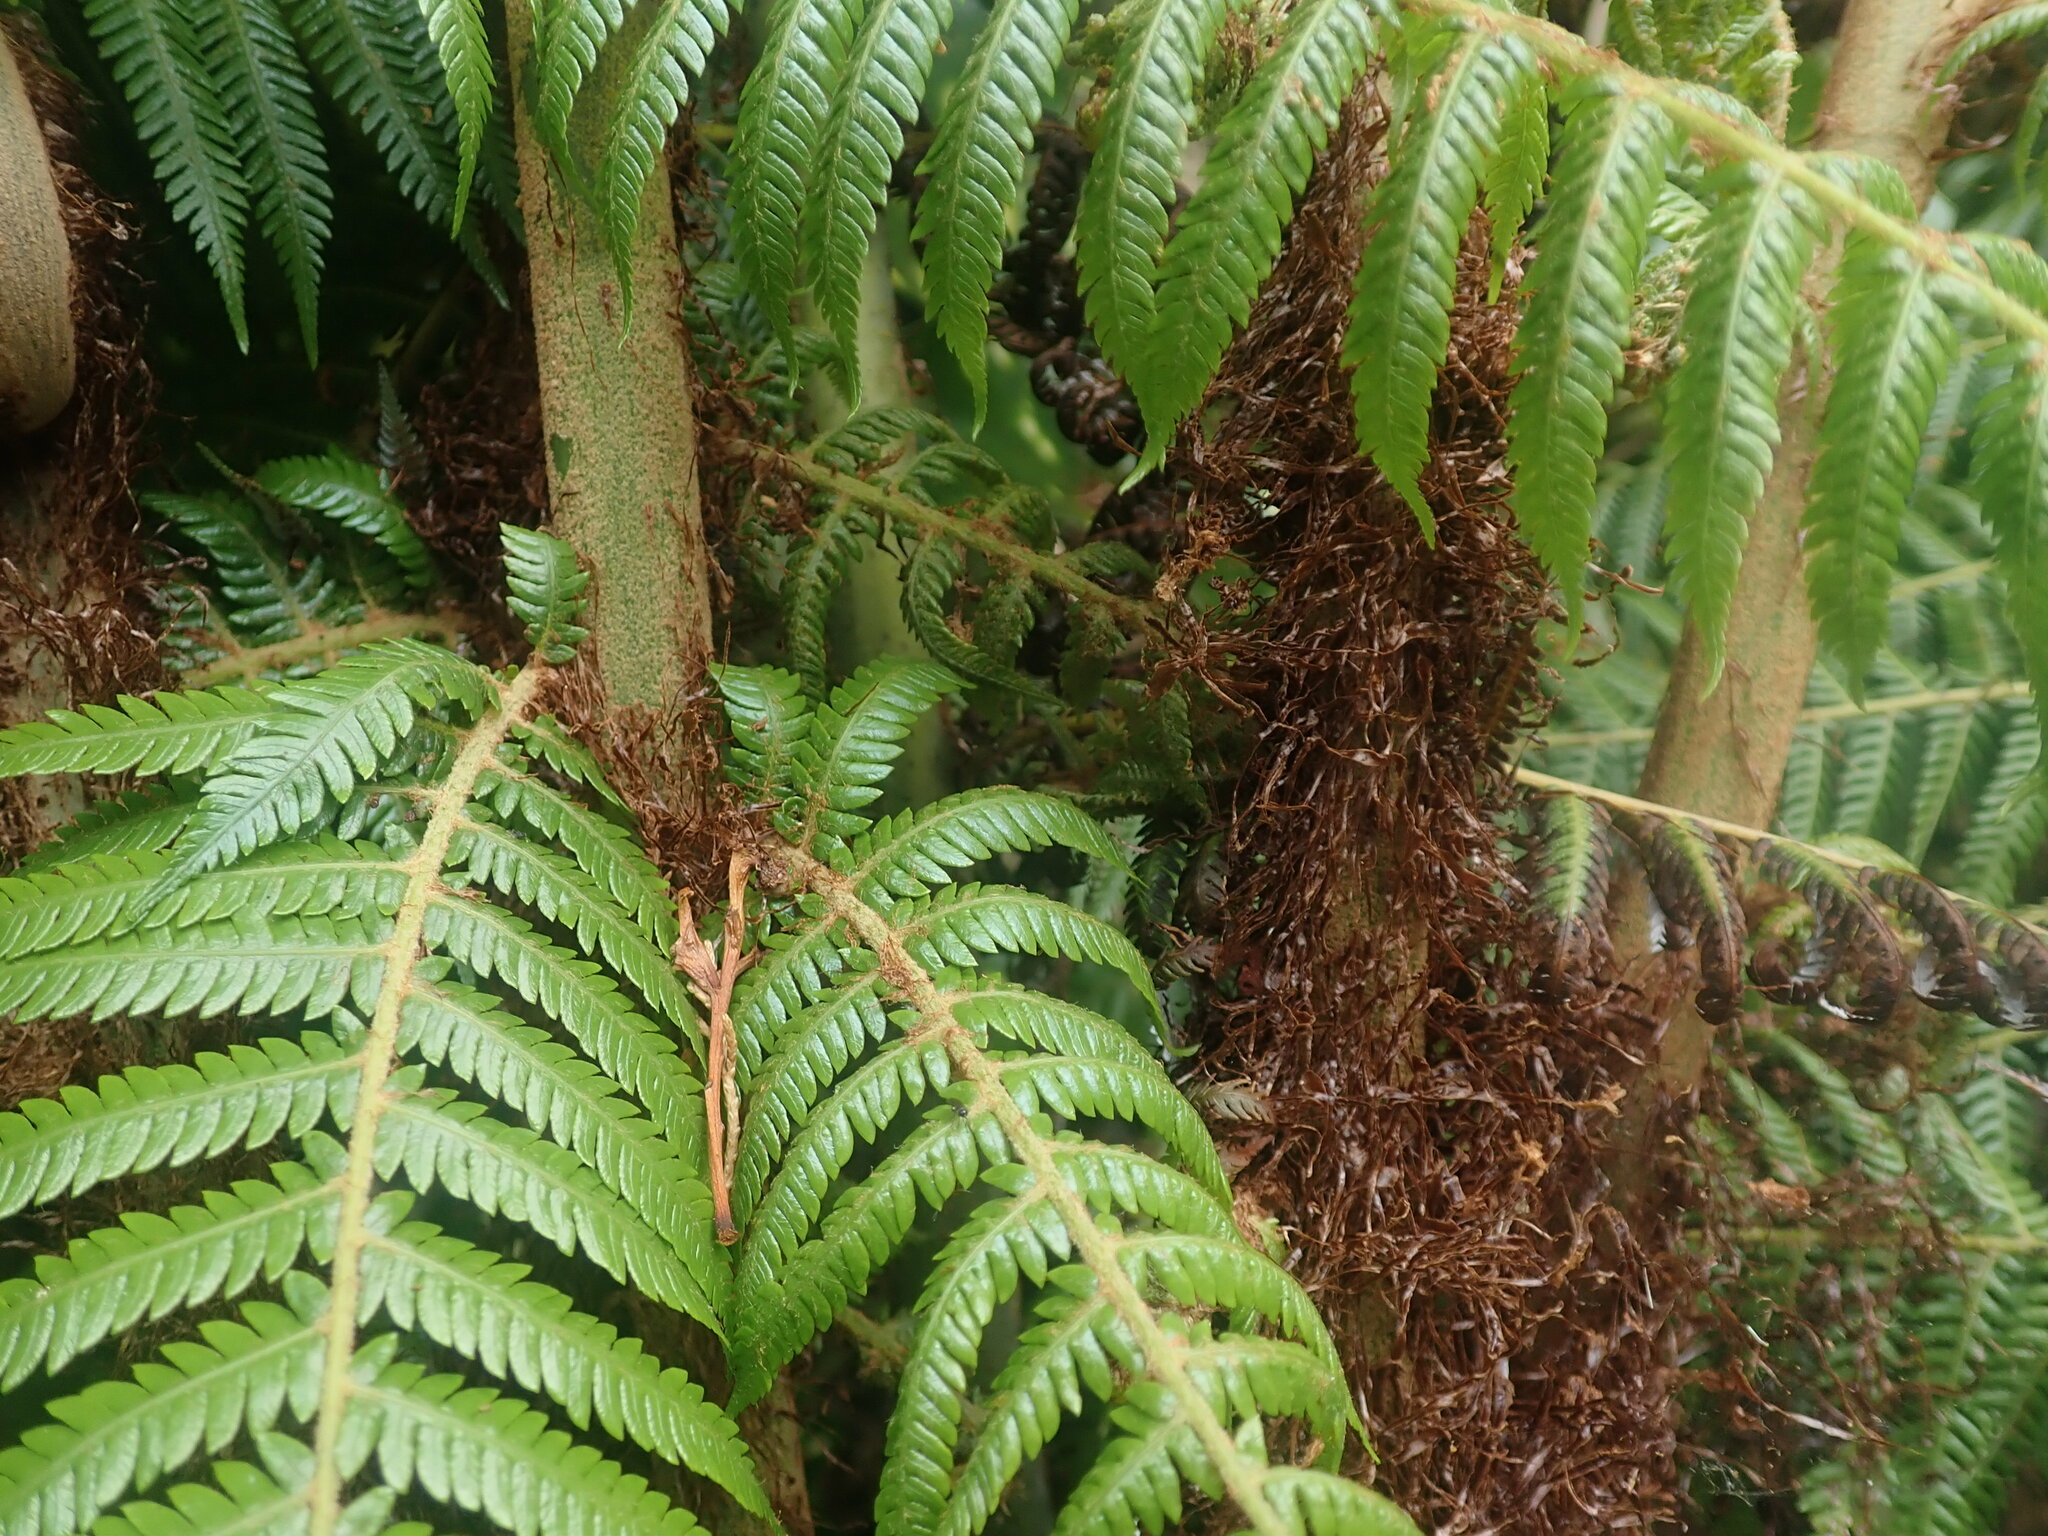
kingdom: Plantae
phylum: Tracheophyta
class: Polypodiopsida
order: Cyatheales
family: Cyatheaceae
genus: Alsophila
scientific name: Alsophila dealbata
